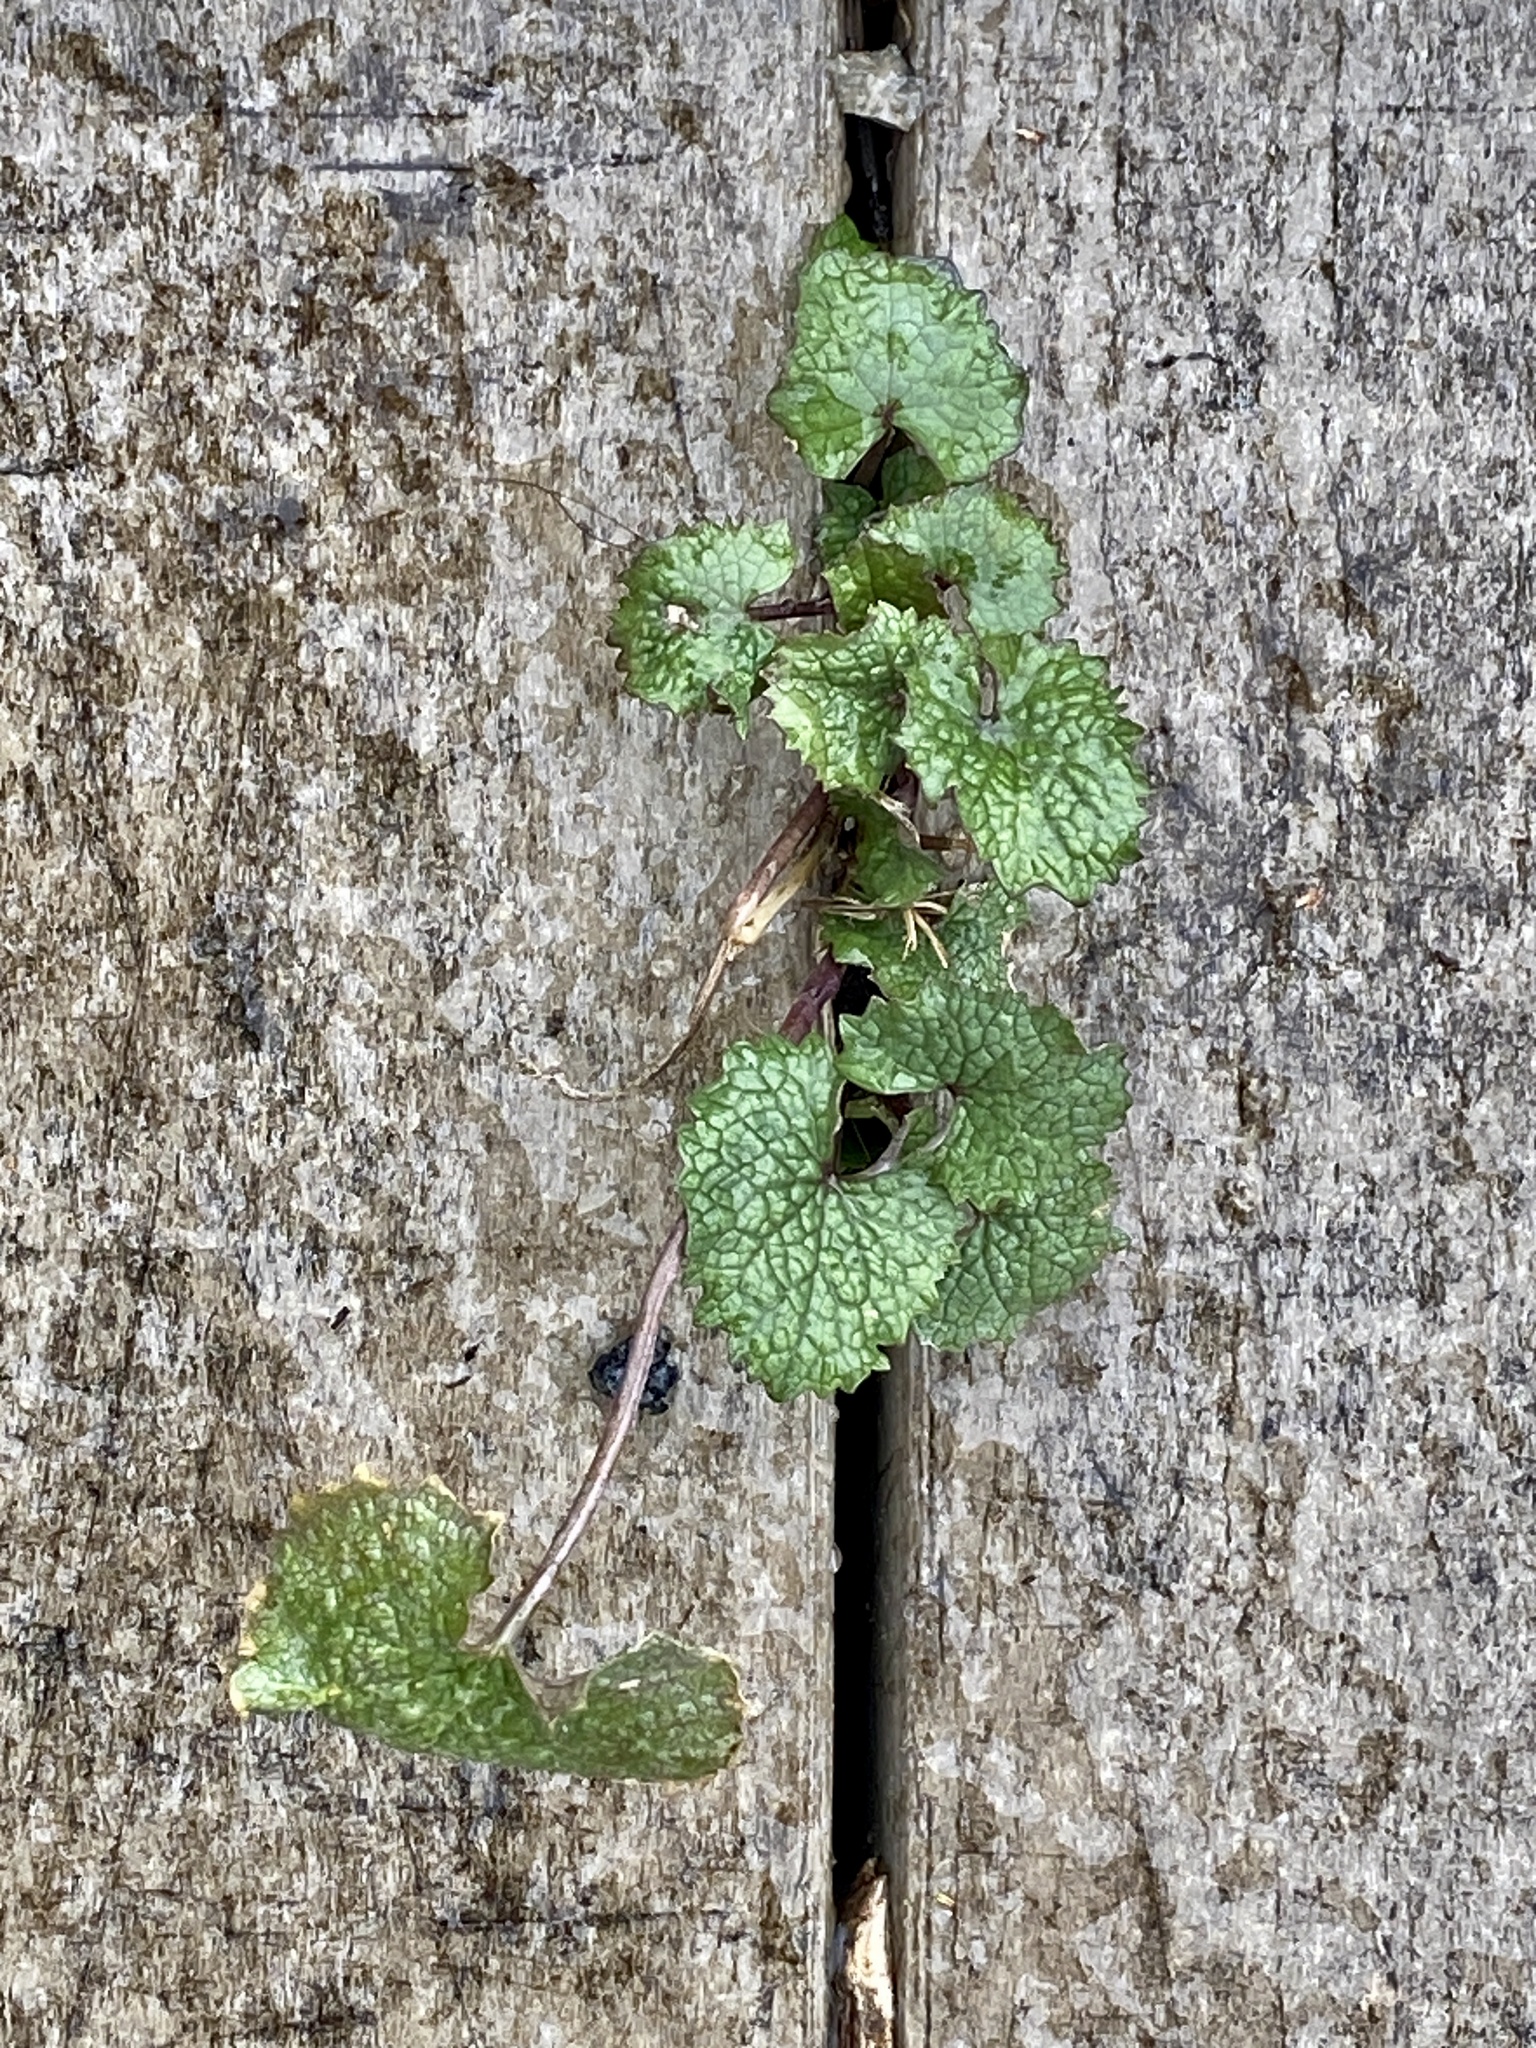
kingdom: Plantae
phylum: Tracheophyta
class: Magnoliopsida
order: Brassicales
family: Brassicaceae
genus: Alliaria
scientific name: Alliaria petiolata
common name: Garlic mustard
